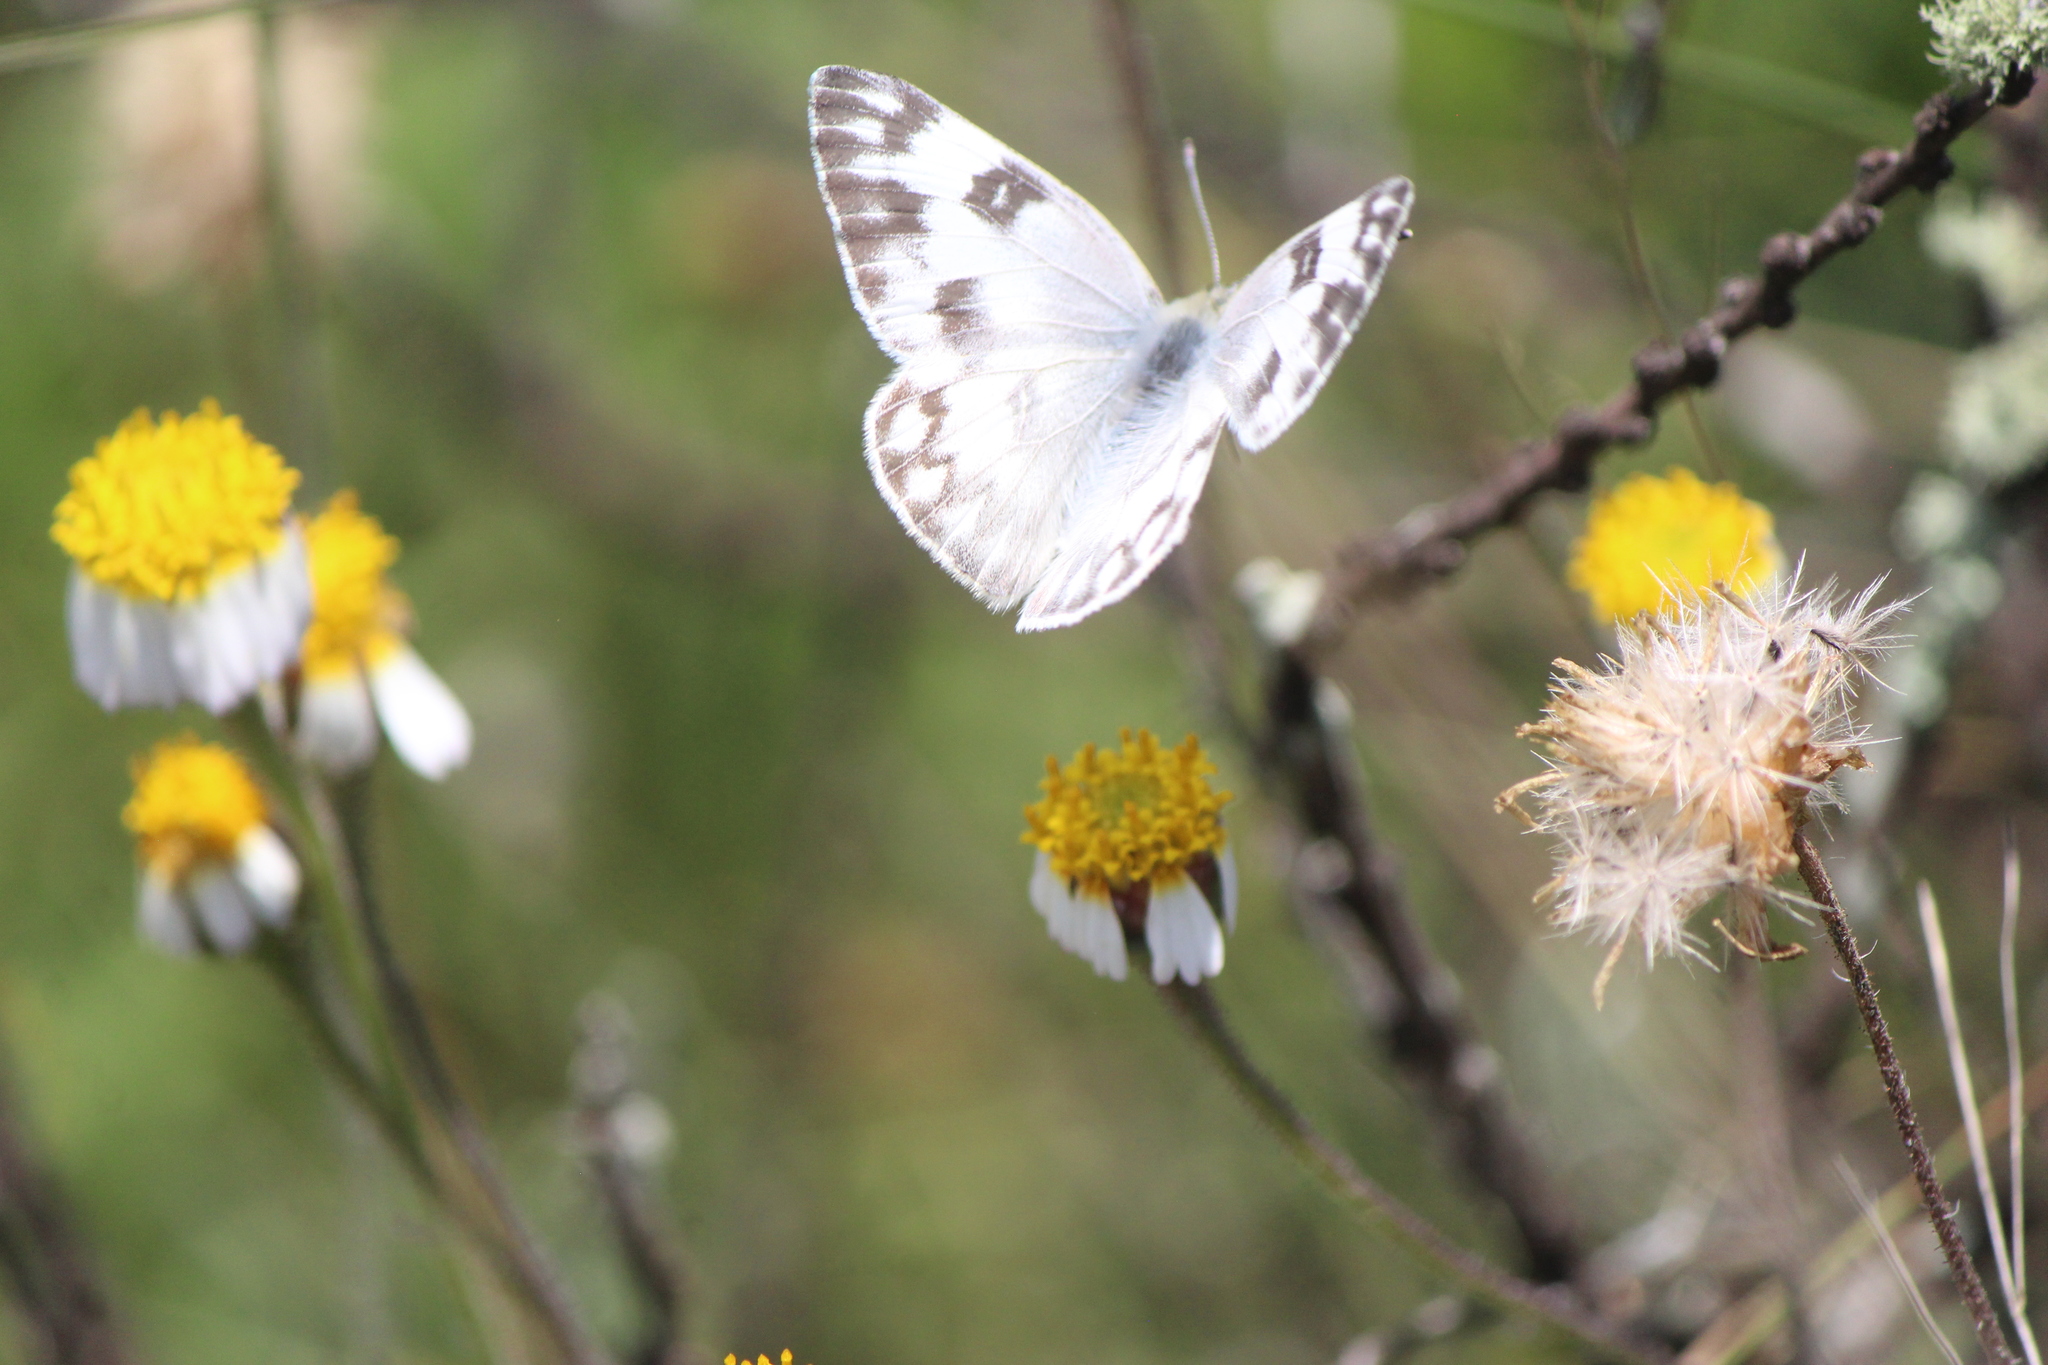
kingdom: Animalia
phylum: Arthropoda
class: Insecta
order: Lepidoptera
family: Pieridae
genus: Pontia
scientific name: Pontia protodice
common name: Checkered white
